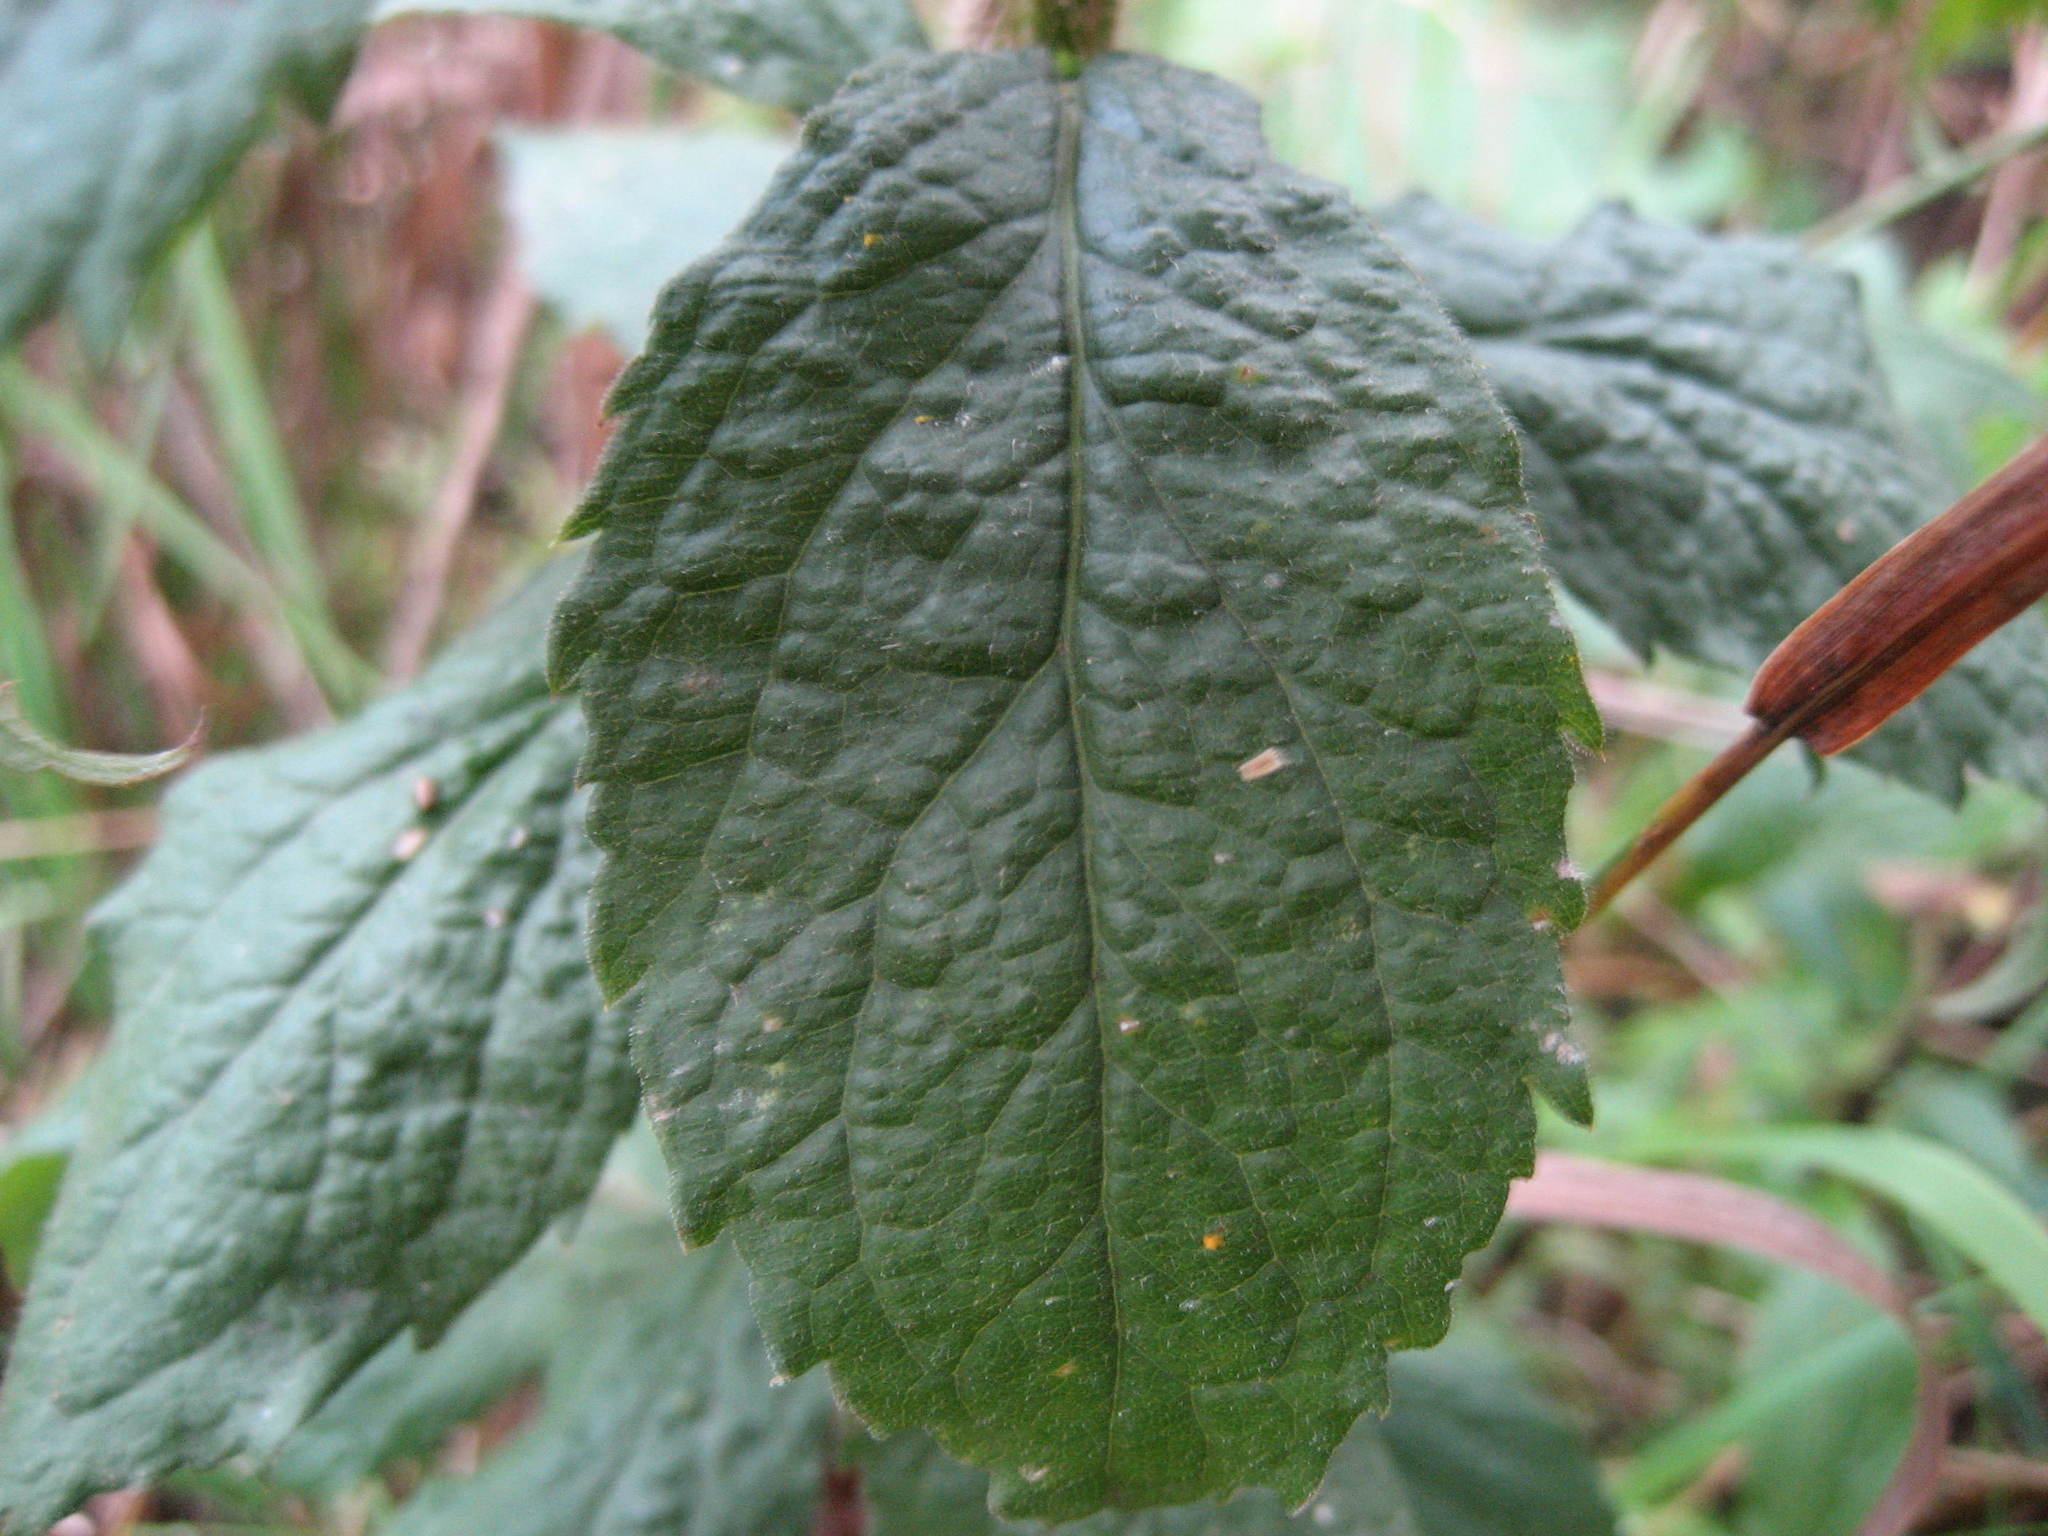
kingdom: Plantae
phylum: Tracheophyta
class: Magnoliopsida
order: Asterales
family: Asteraceae
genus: Solidago
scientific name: Solidago rugosa
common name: Rough-stemmed goldenrod
